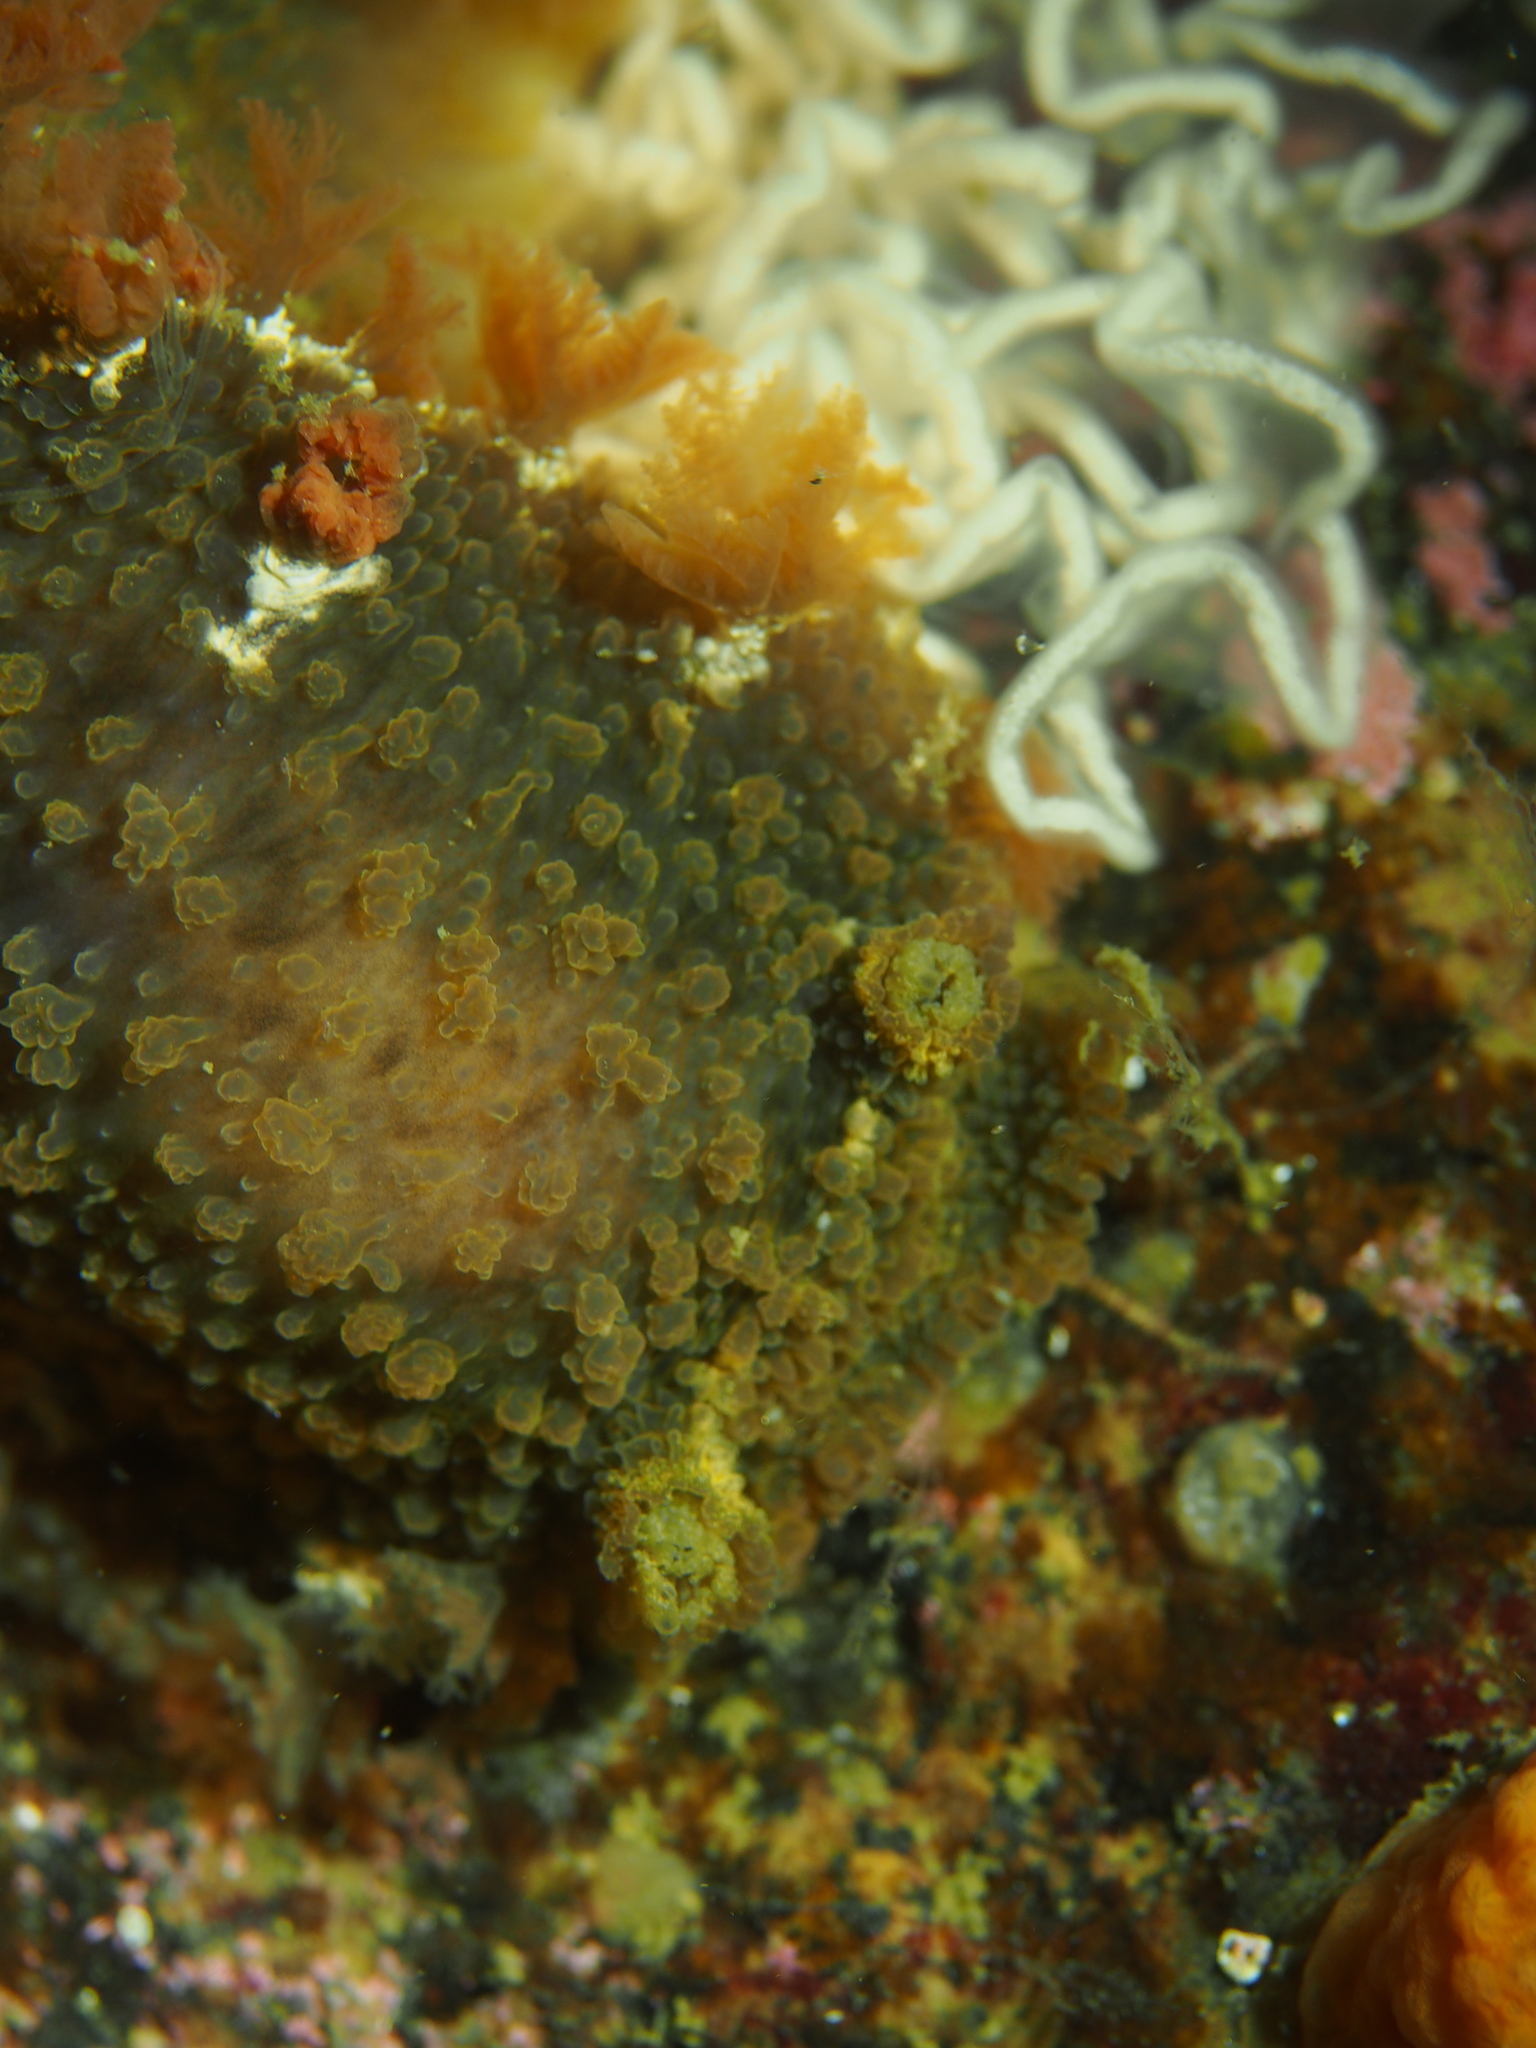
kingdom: Animalia
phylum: Mollusca
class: Gastropoda
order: Nudibranchia
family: Tritoniidae
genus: Tritonia
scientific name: Tritonia hombergii
